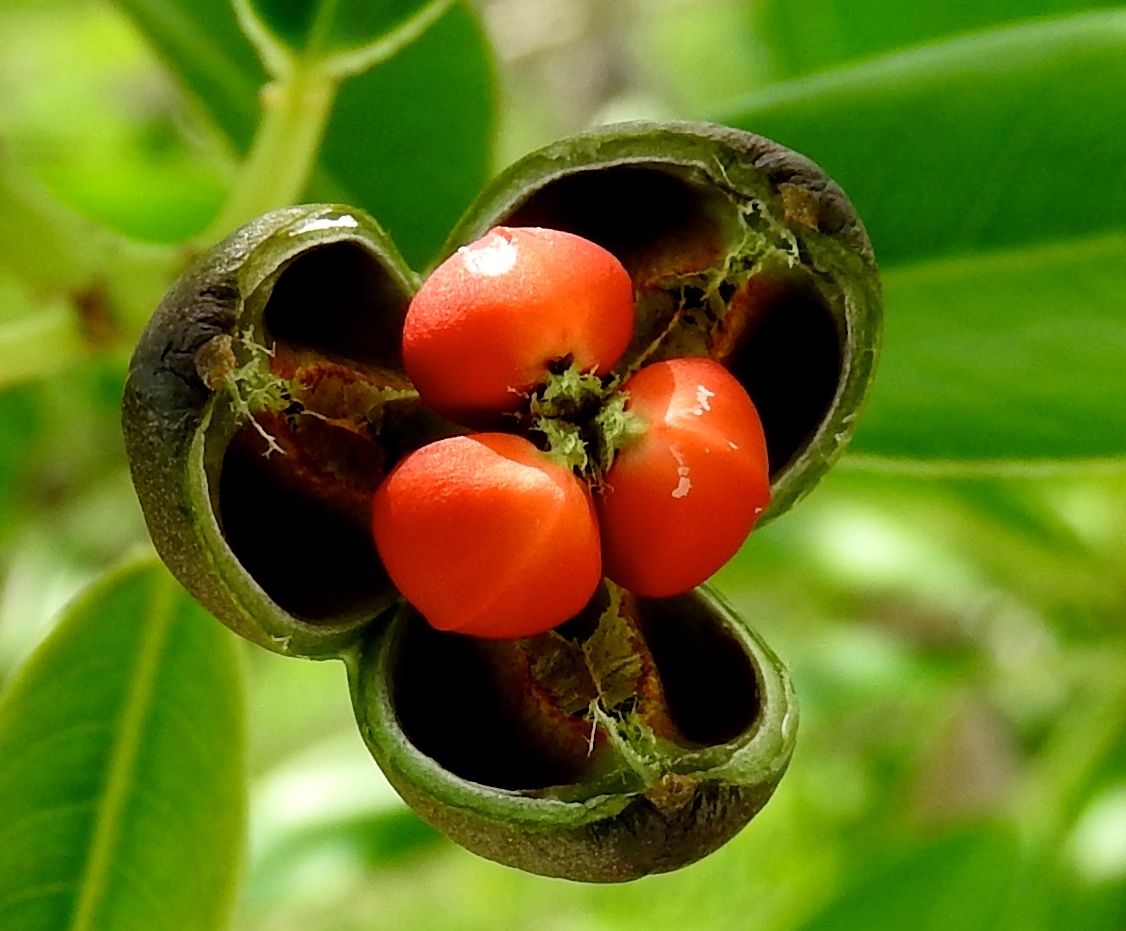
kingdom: Plantae
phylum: Tracheophyta
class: Magnoliopsida
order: Malpighiales
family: Euphorbiaceae
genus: Sapium
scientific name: Sapium lateriflorum
